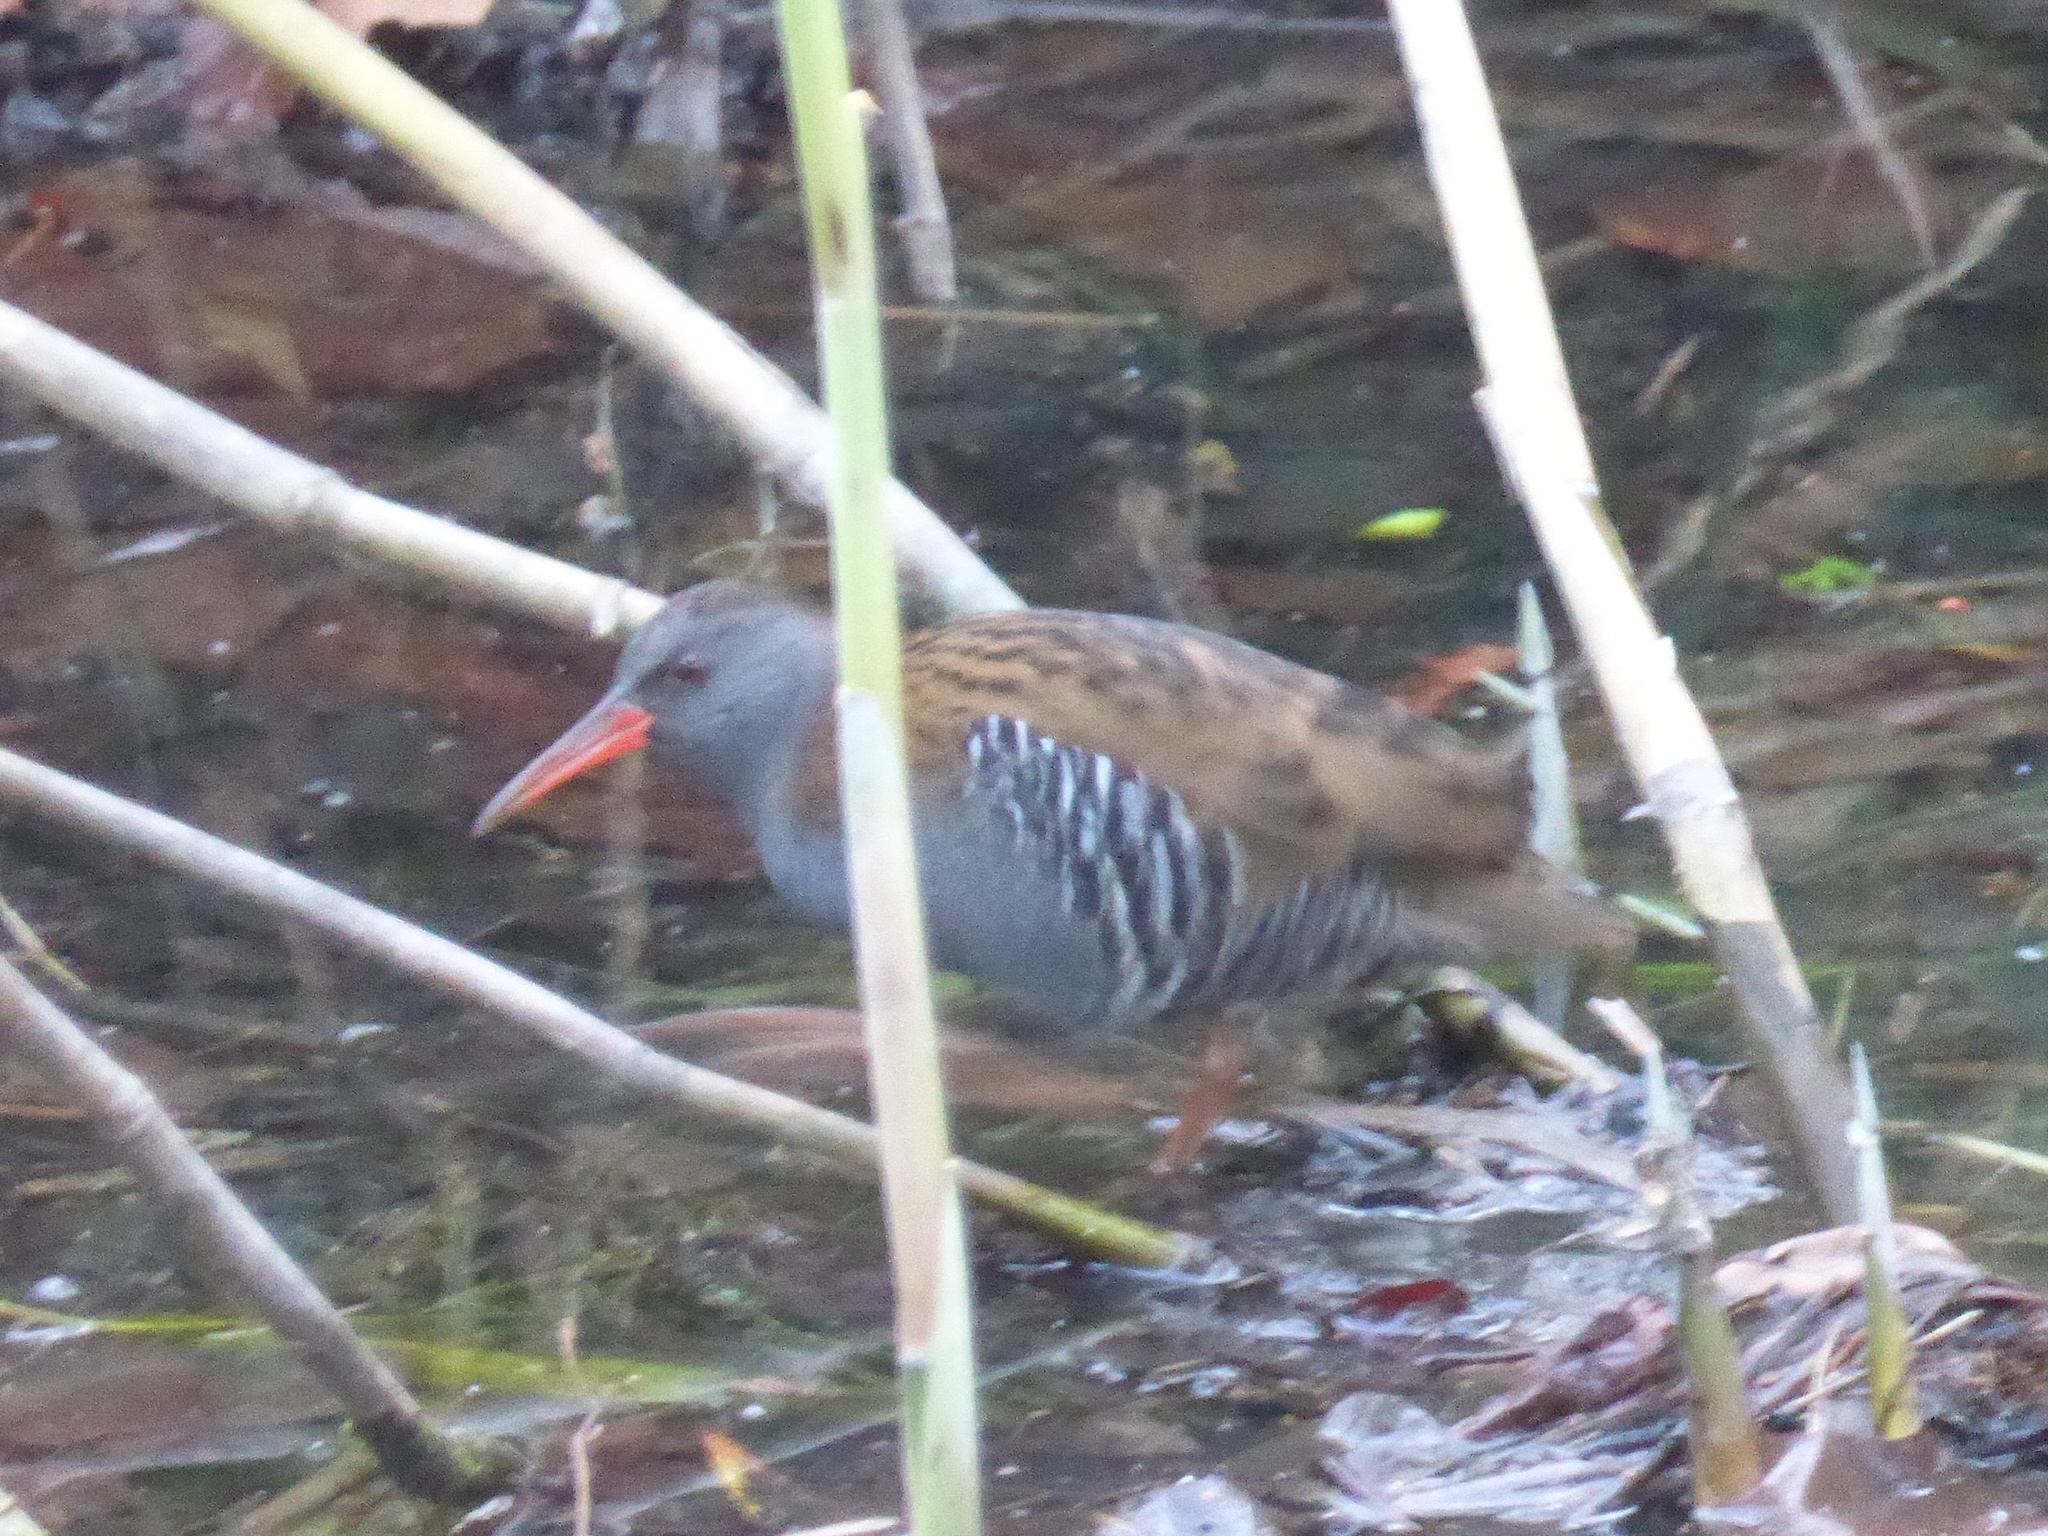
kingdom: Animalia
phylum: Chordata
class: Aves
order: Gruiformes
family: Rallidae
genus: Rallus
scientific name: Rallus aquaticus
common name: Water rail
